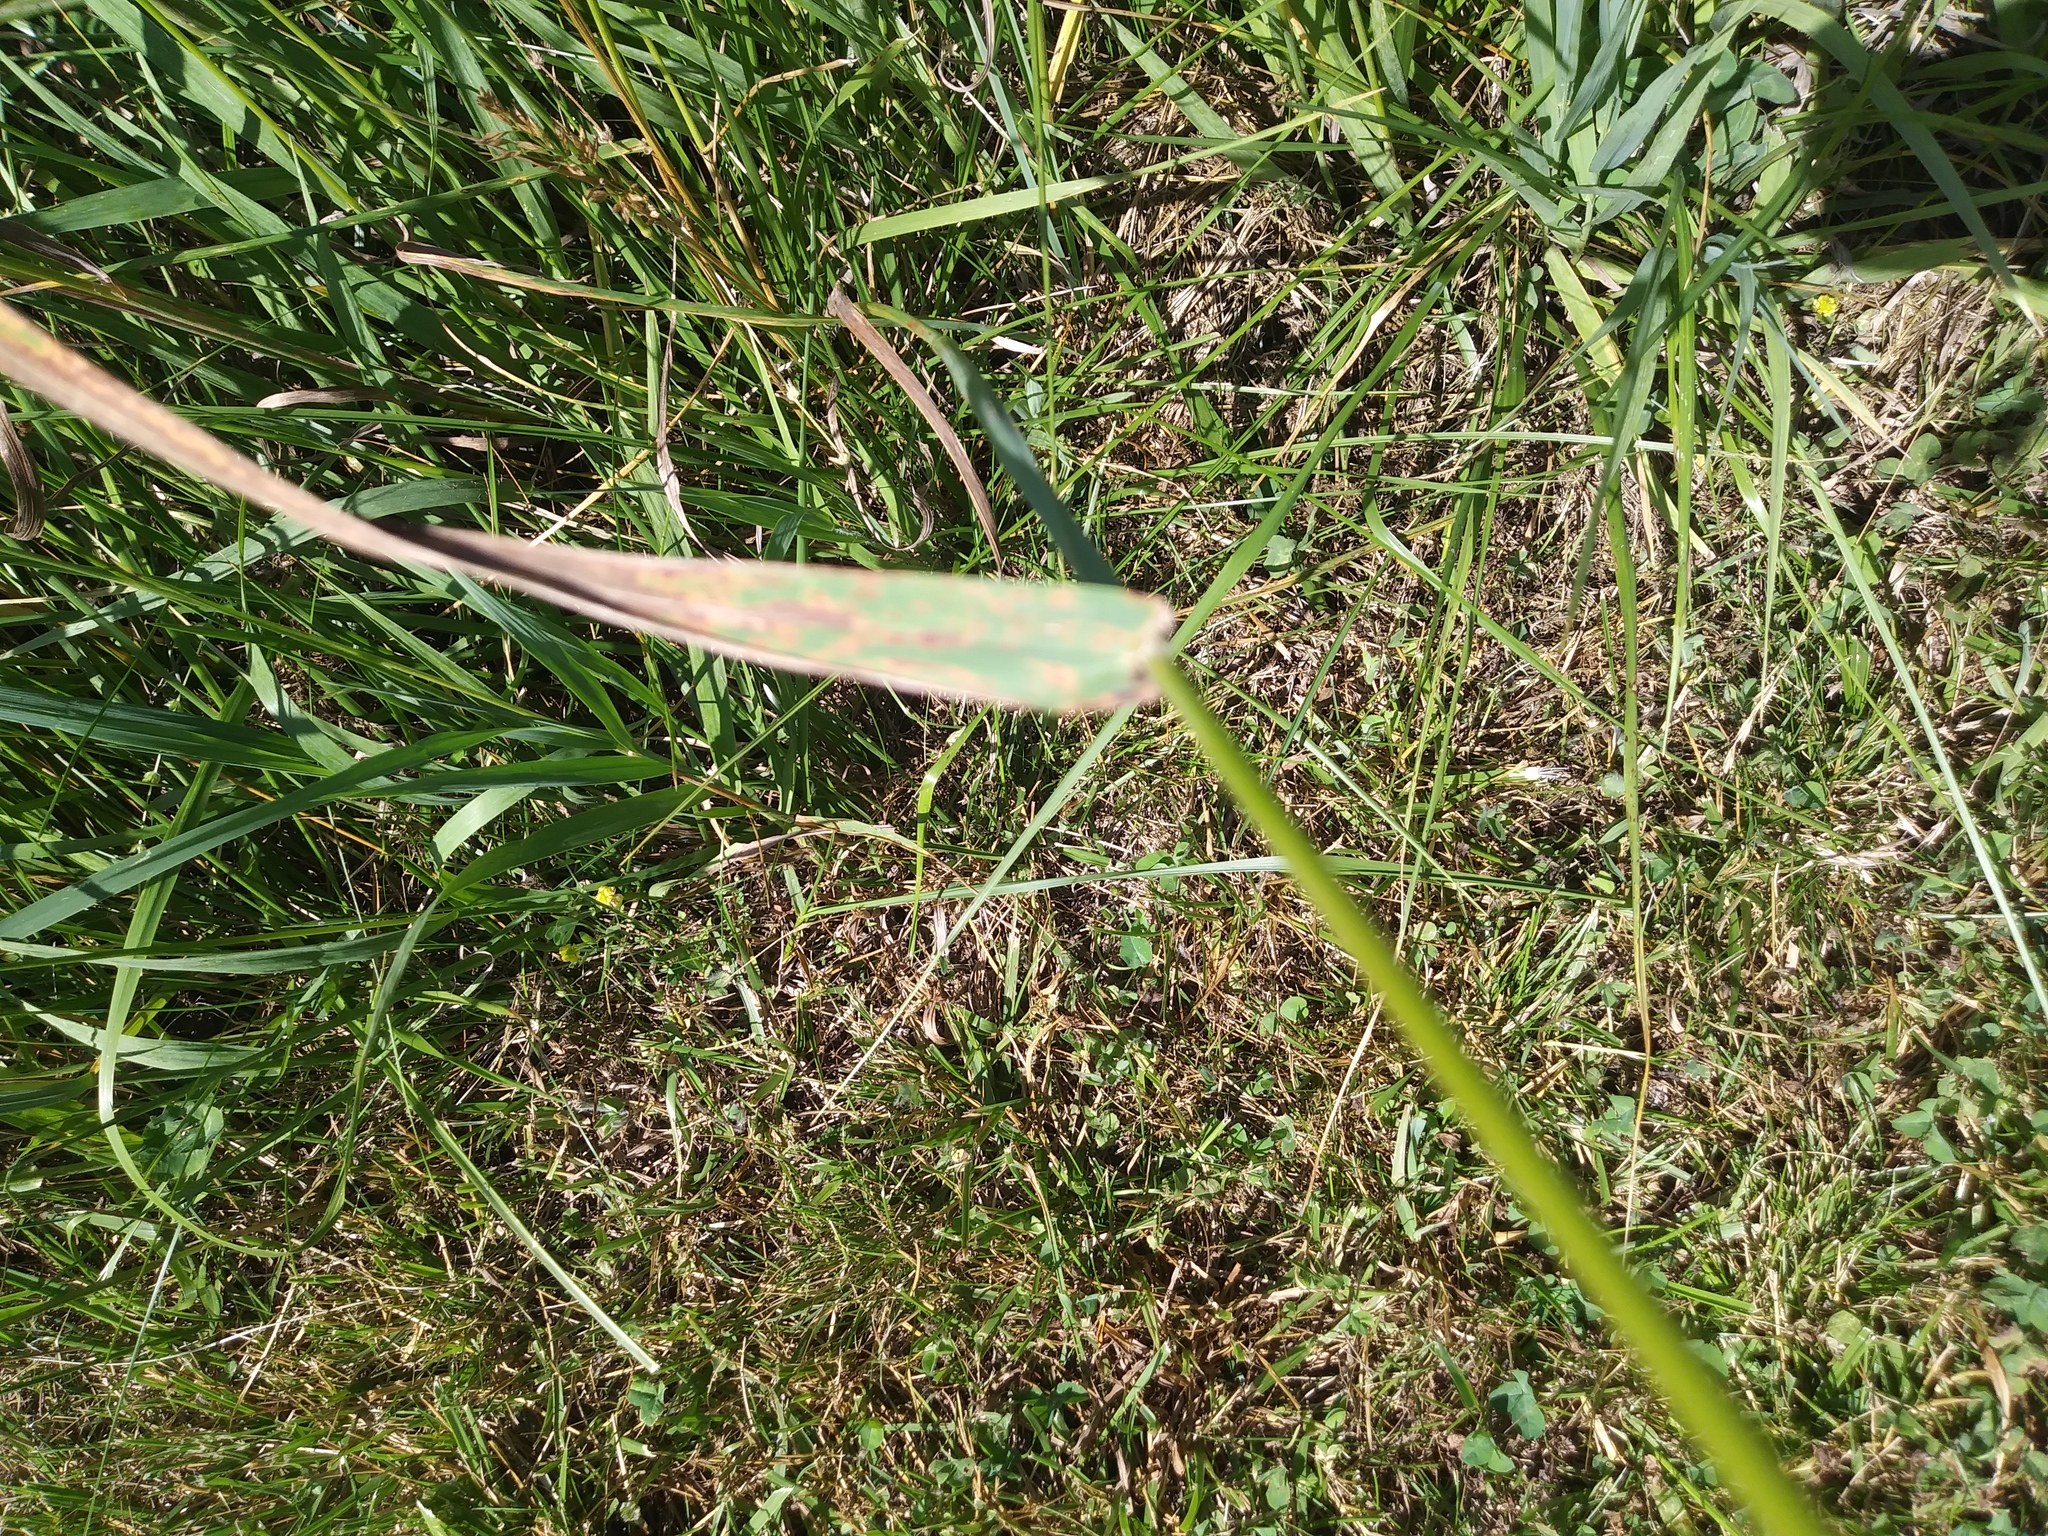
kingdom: Plantae
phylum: Tracheophyta
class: Liliopsida
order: Poales
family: Poaceae
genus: Dactylis
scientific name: Dactylis glomerata
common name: Orchardgrass
